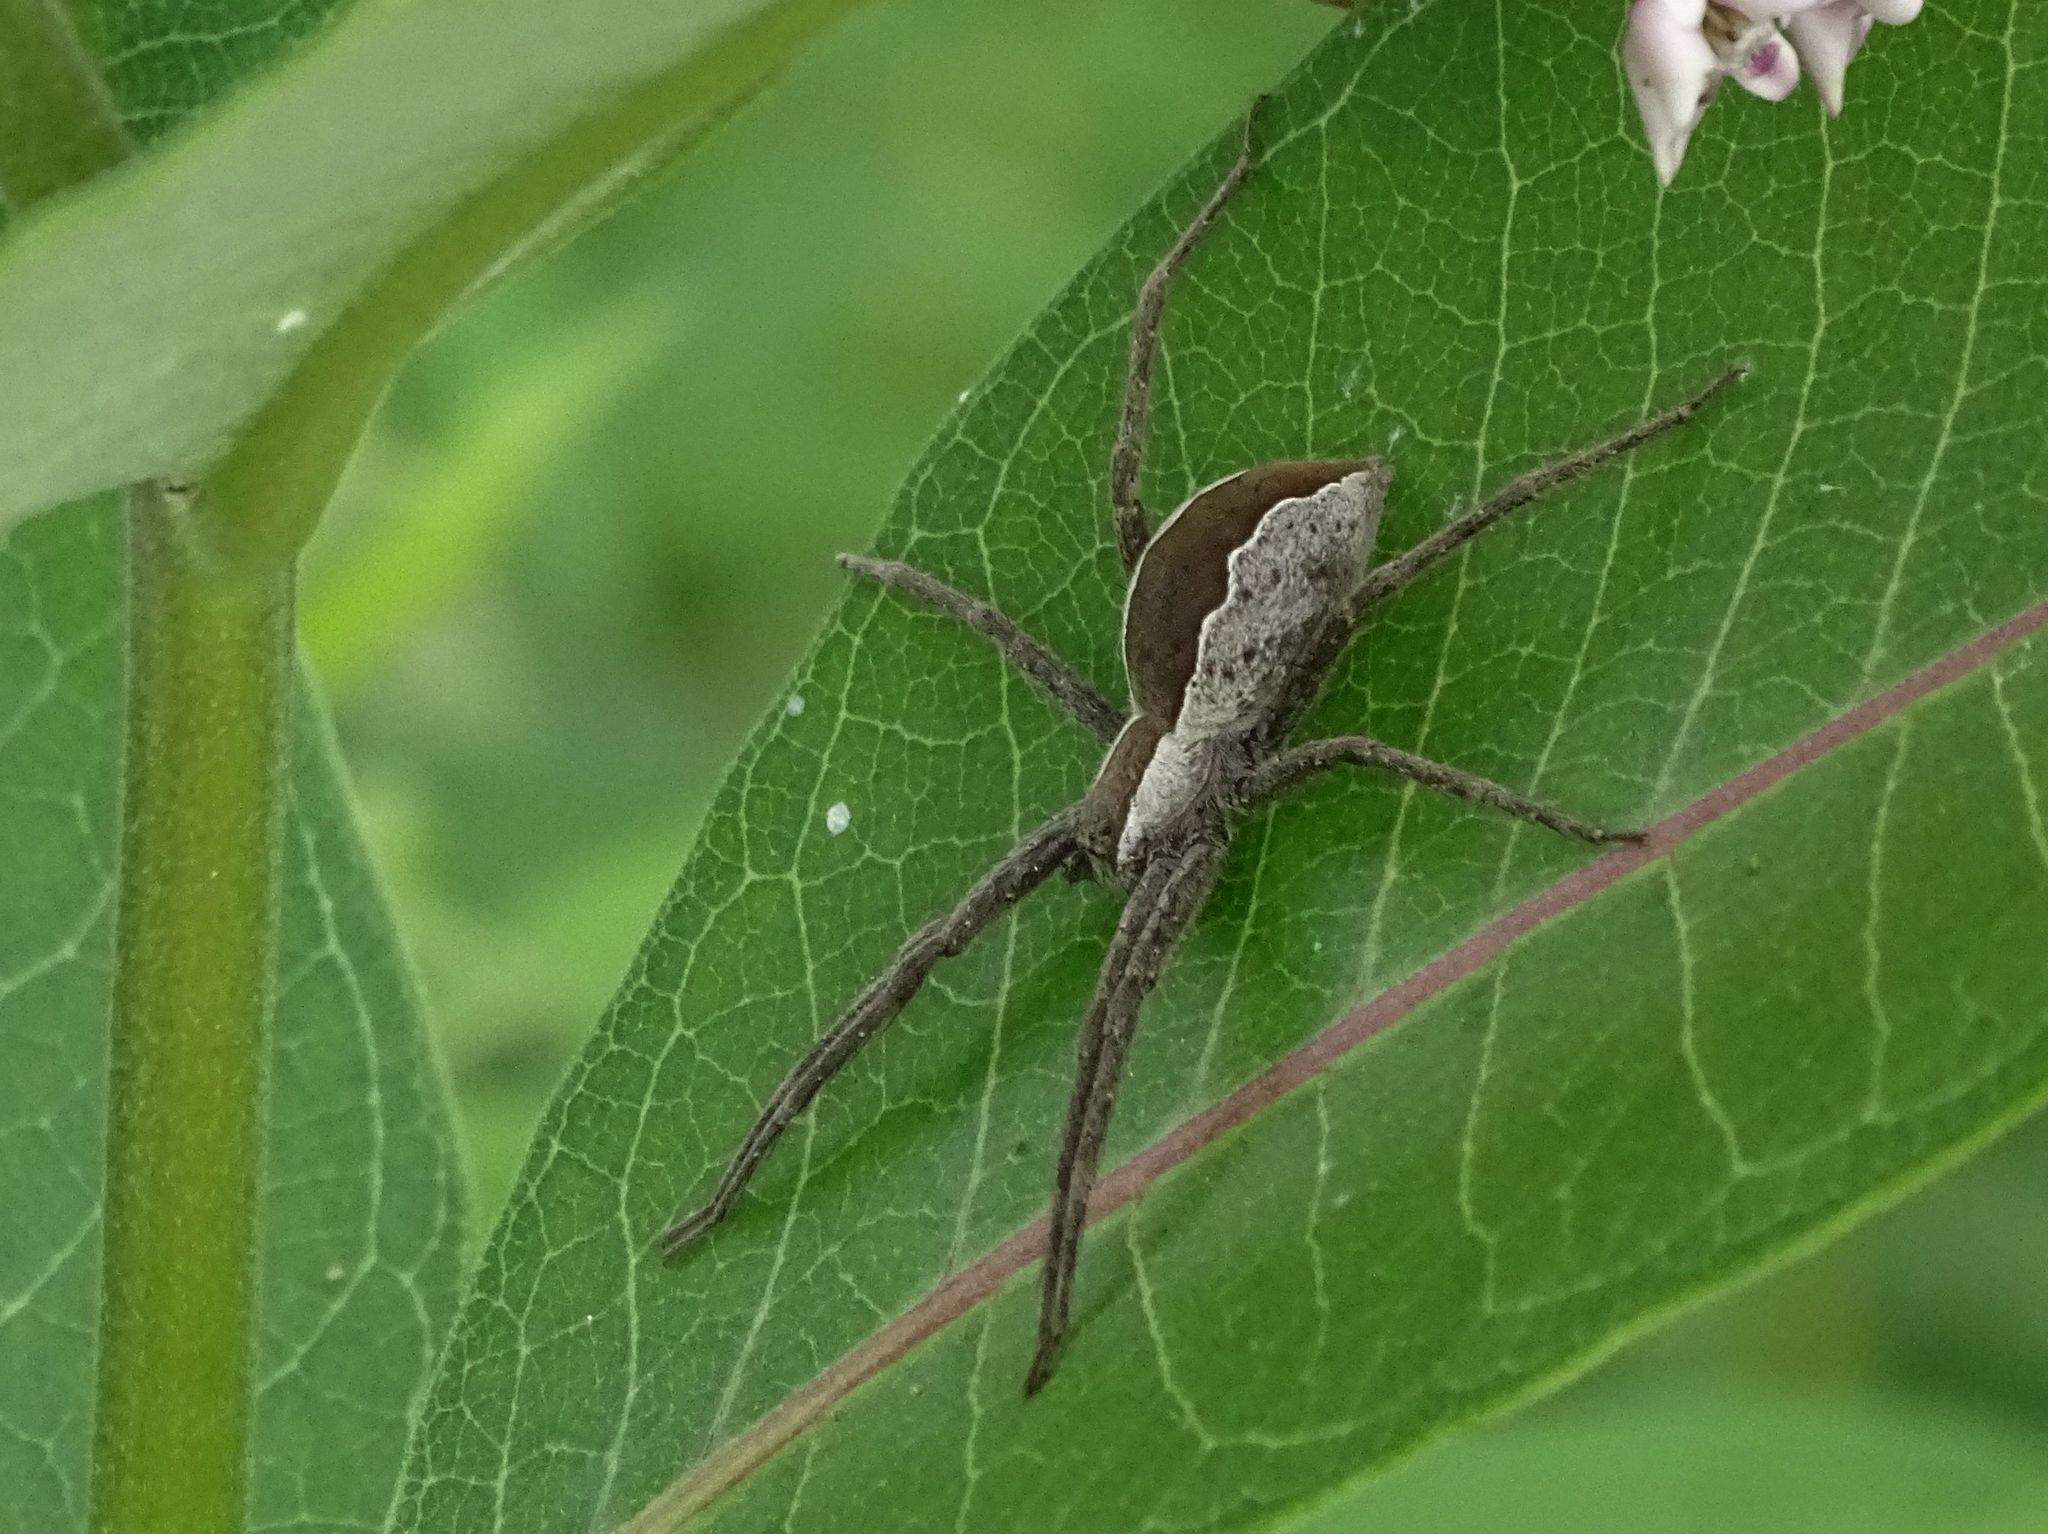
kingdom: Animalia
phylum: Arthropoda
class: Arachnida
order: Araneae
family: Pisauridae
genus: Pisaurina
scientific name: Pisaurina mira
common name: American nursery web spider
